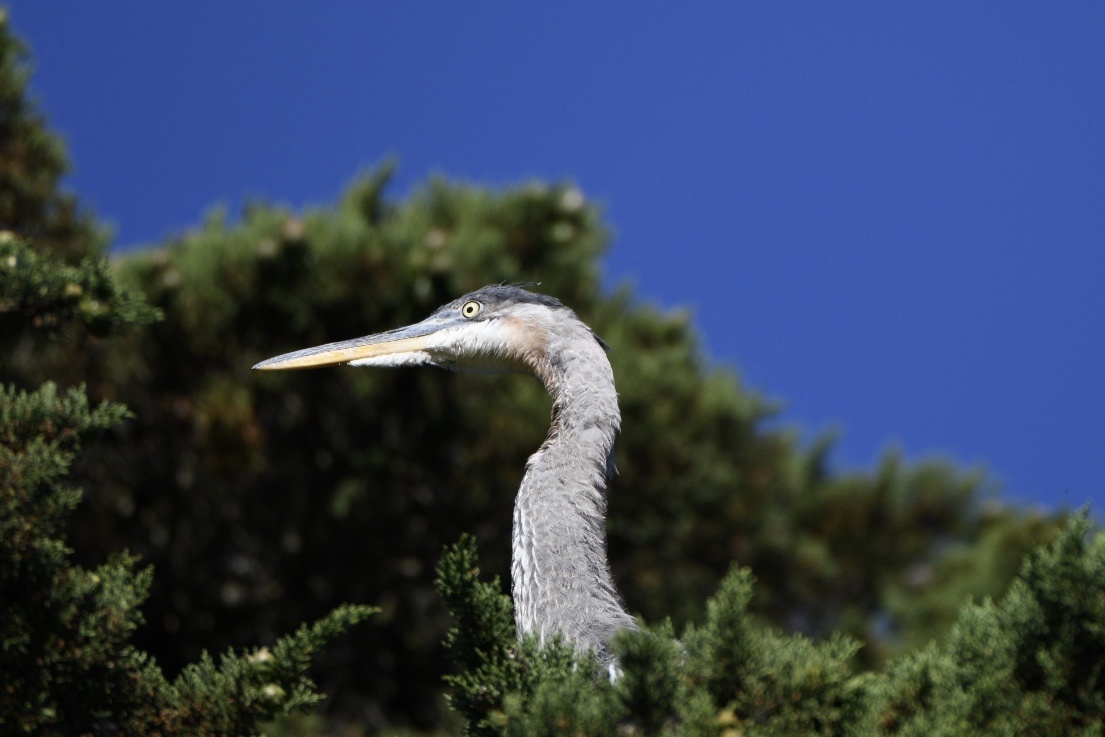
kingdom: Animalia
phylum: Chordata
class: Aves
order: Pelecaniformes
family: Ardeidae
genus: Ardea
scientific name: Ardea herodias
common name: Great blue heron
